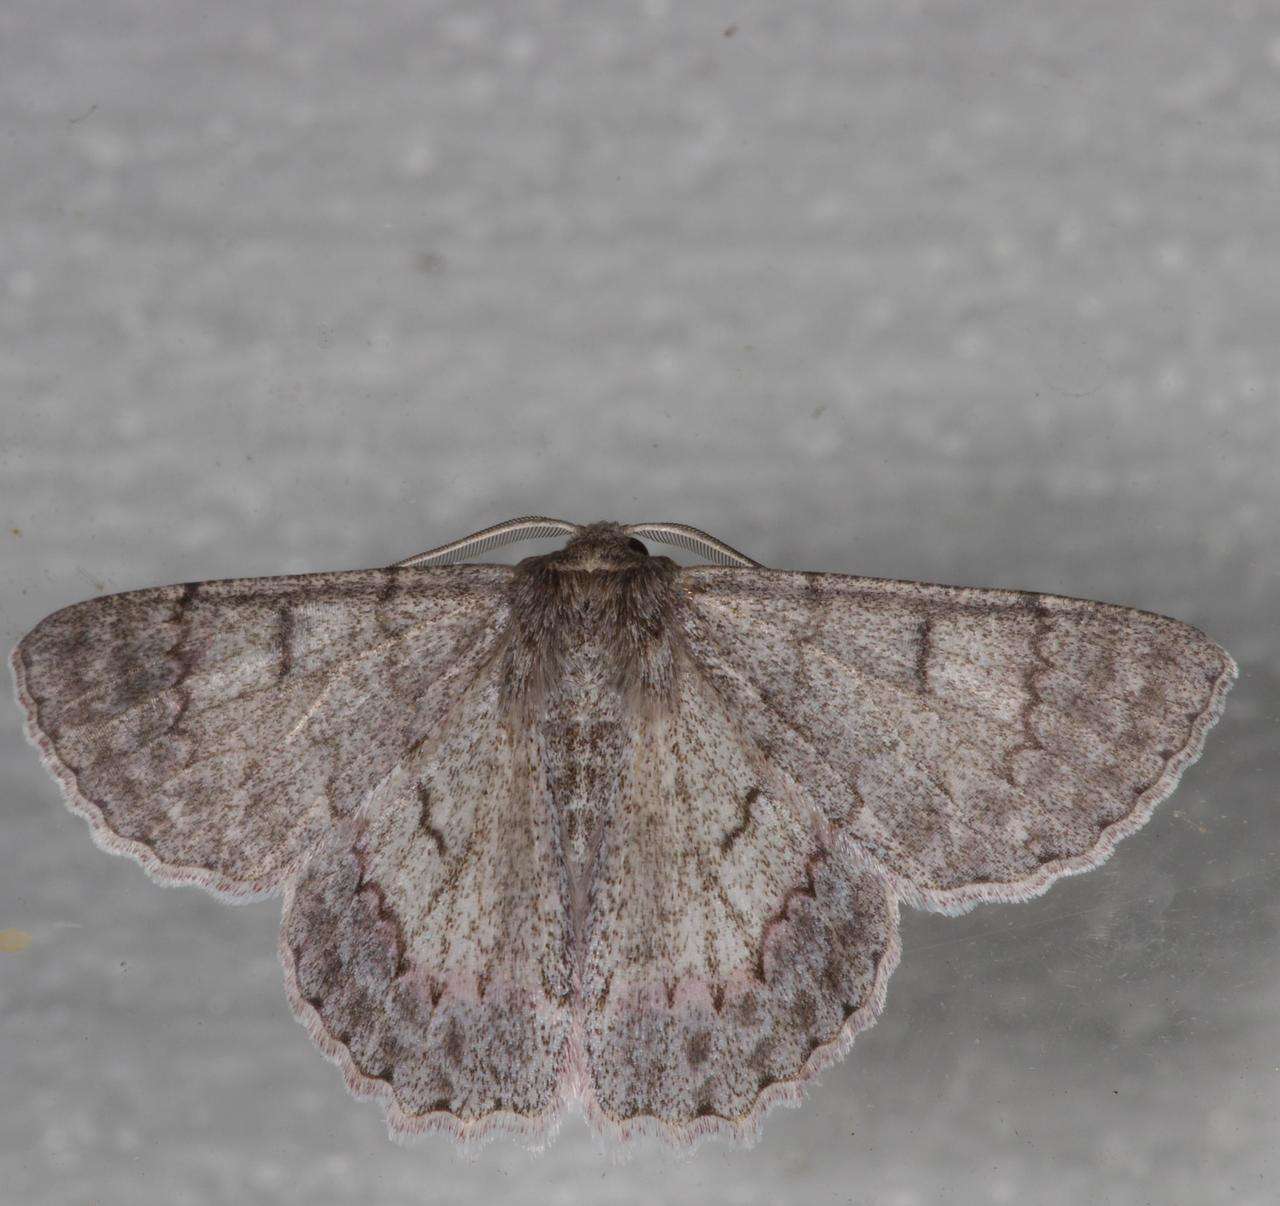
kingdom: Animalia
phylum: Arthropoda
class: Insecta
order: Lepidoptera
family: Geometridae
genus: Crypsiphona
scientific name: Crypsiphona ocultaria
